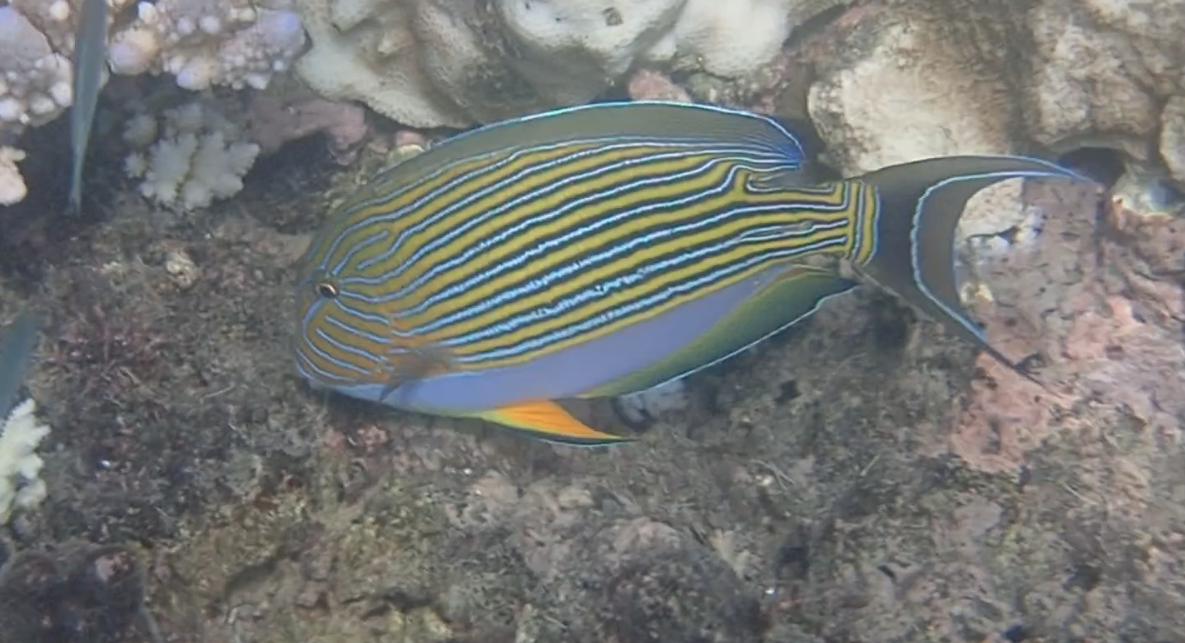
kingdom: Animalia
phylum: Chordata
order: Perciformes
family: Acanthuridae
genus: Acanthurus
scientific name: Acanthurus lineatus
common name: Striped surgeonfish
